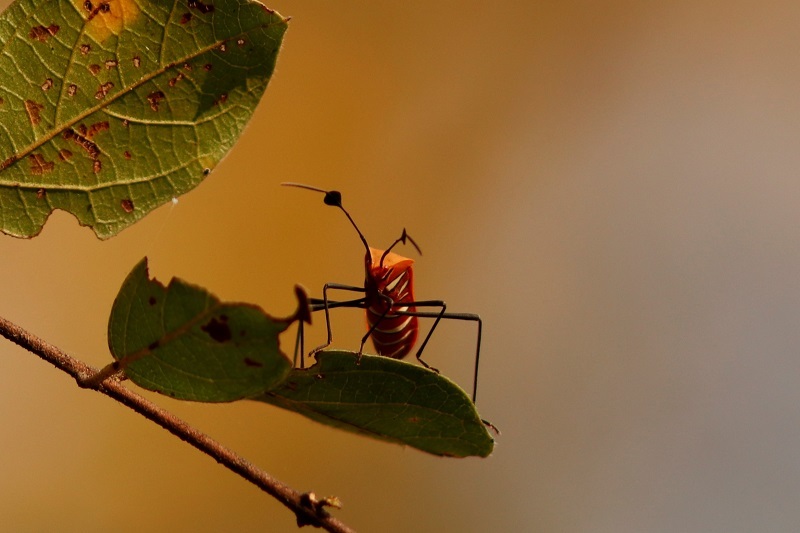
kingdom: Animalia
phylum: Arthropoda
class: Insecta
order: Hemiptera
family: Coreidae
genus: Galaesus
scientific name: Galaesus hasticornis
